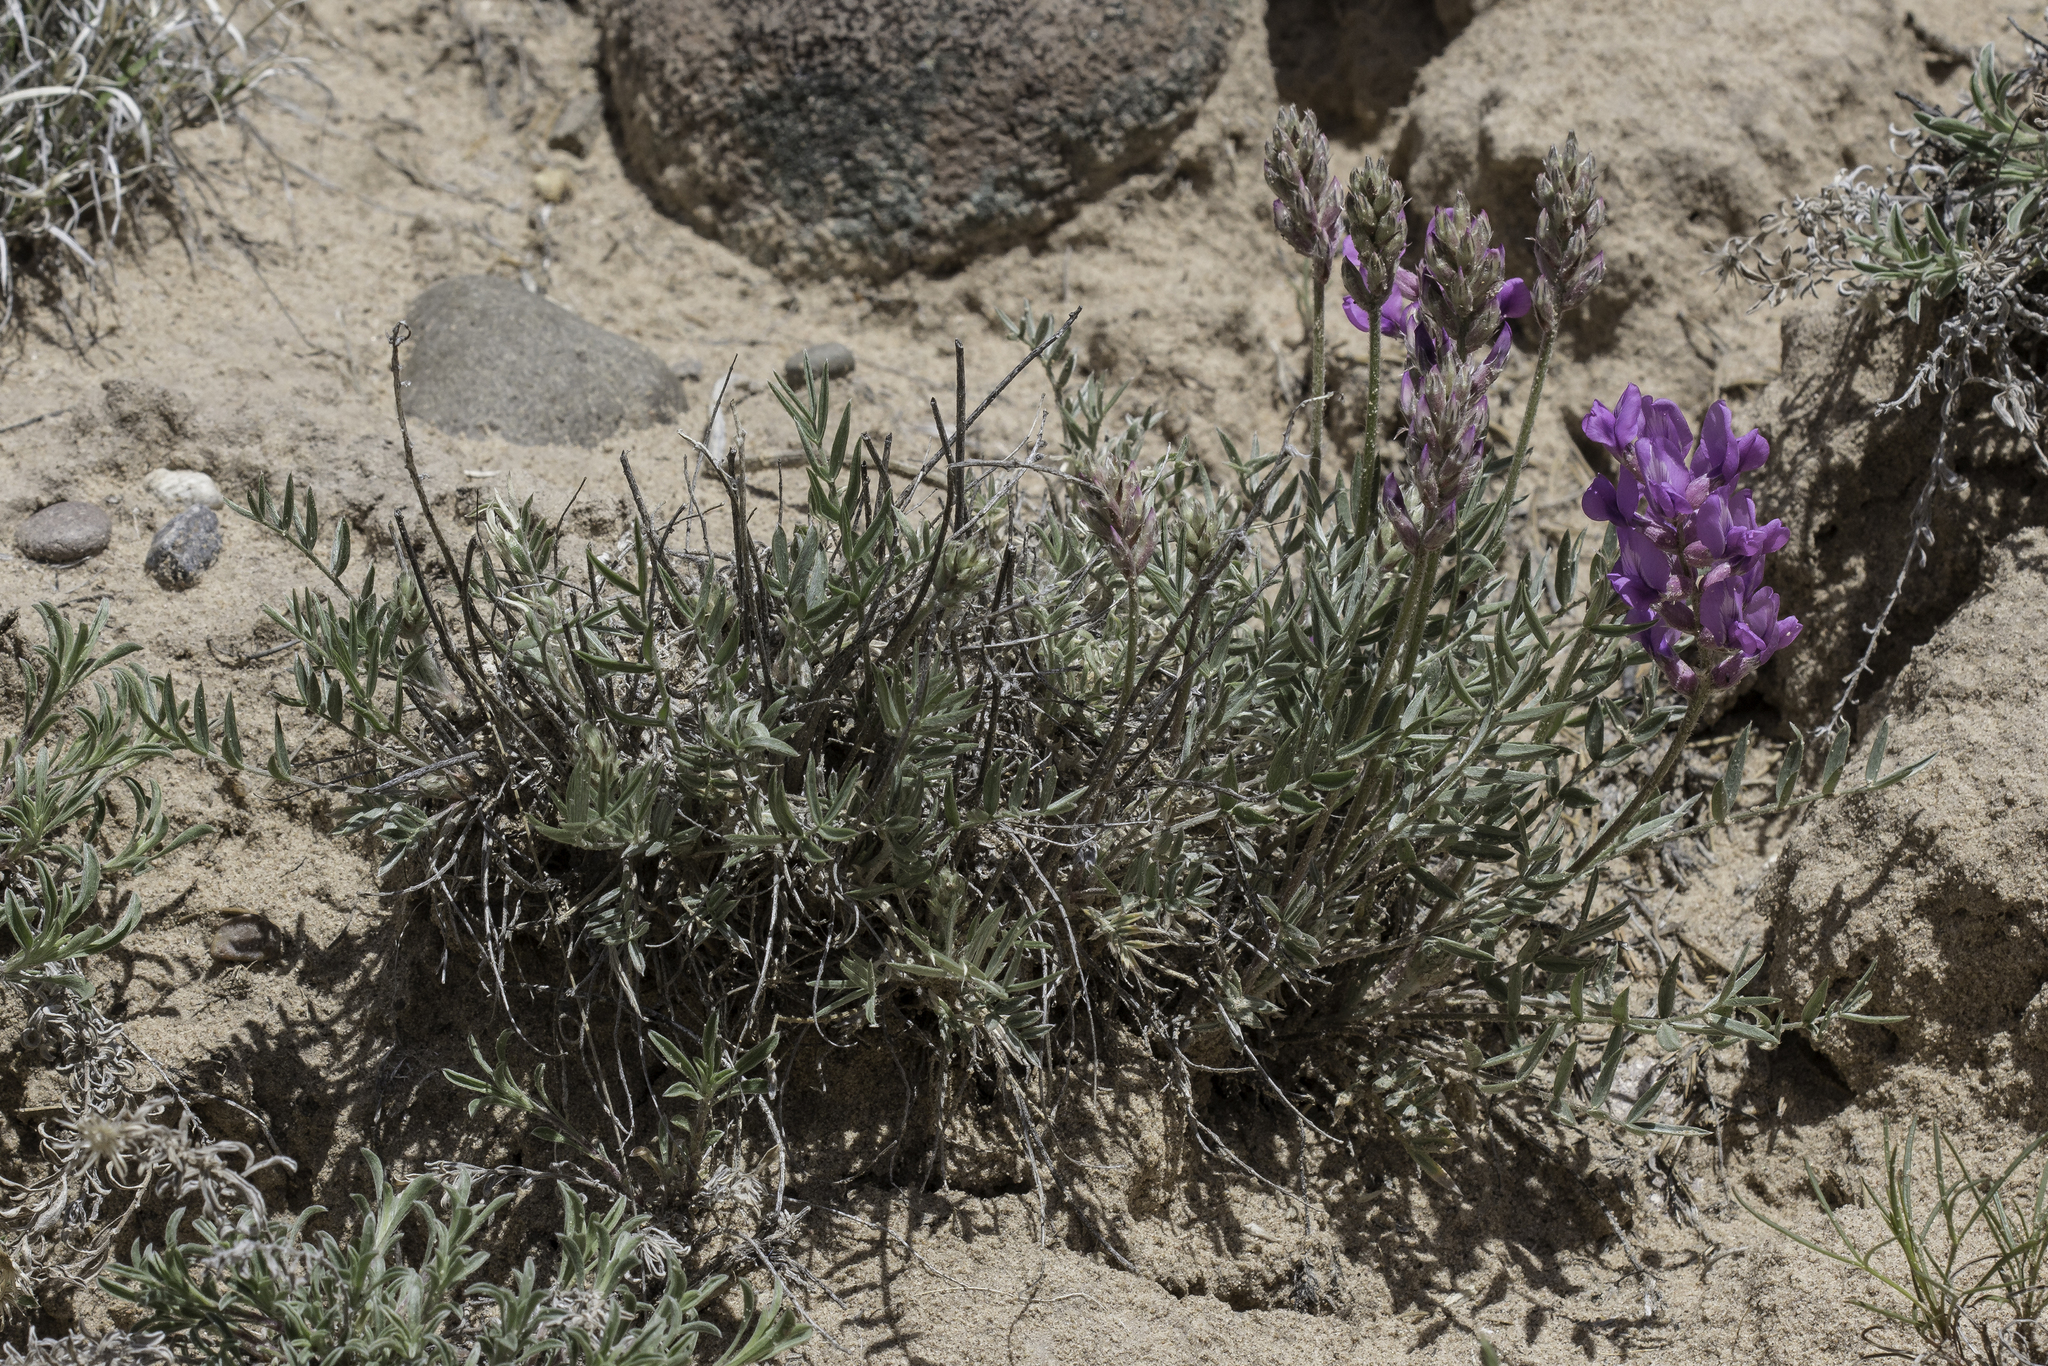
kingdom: Plantae
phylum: Tracheophyta
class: Magnoliopsida
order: Fabales
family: Fabaceae
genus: Oxytropis
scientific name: Oxytropis lambertii
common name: Purple locoweed
